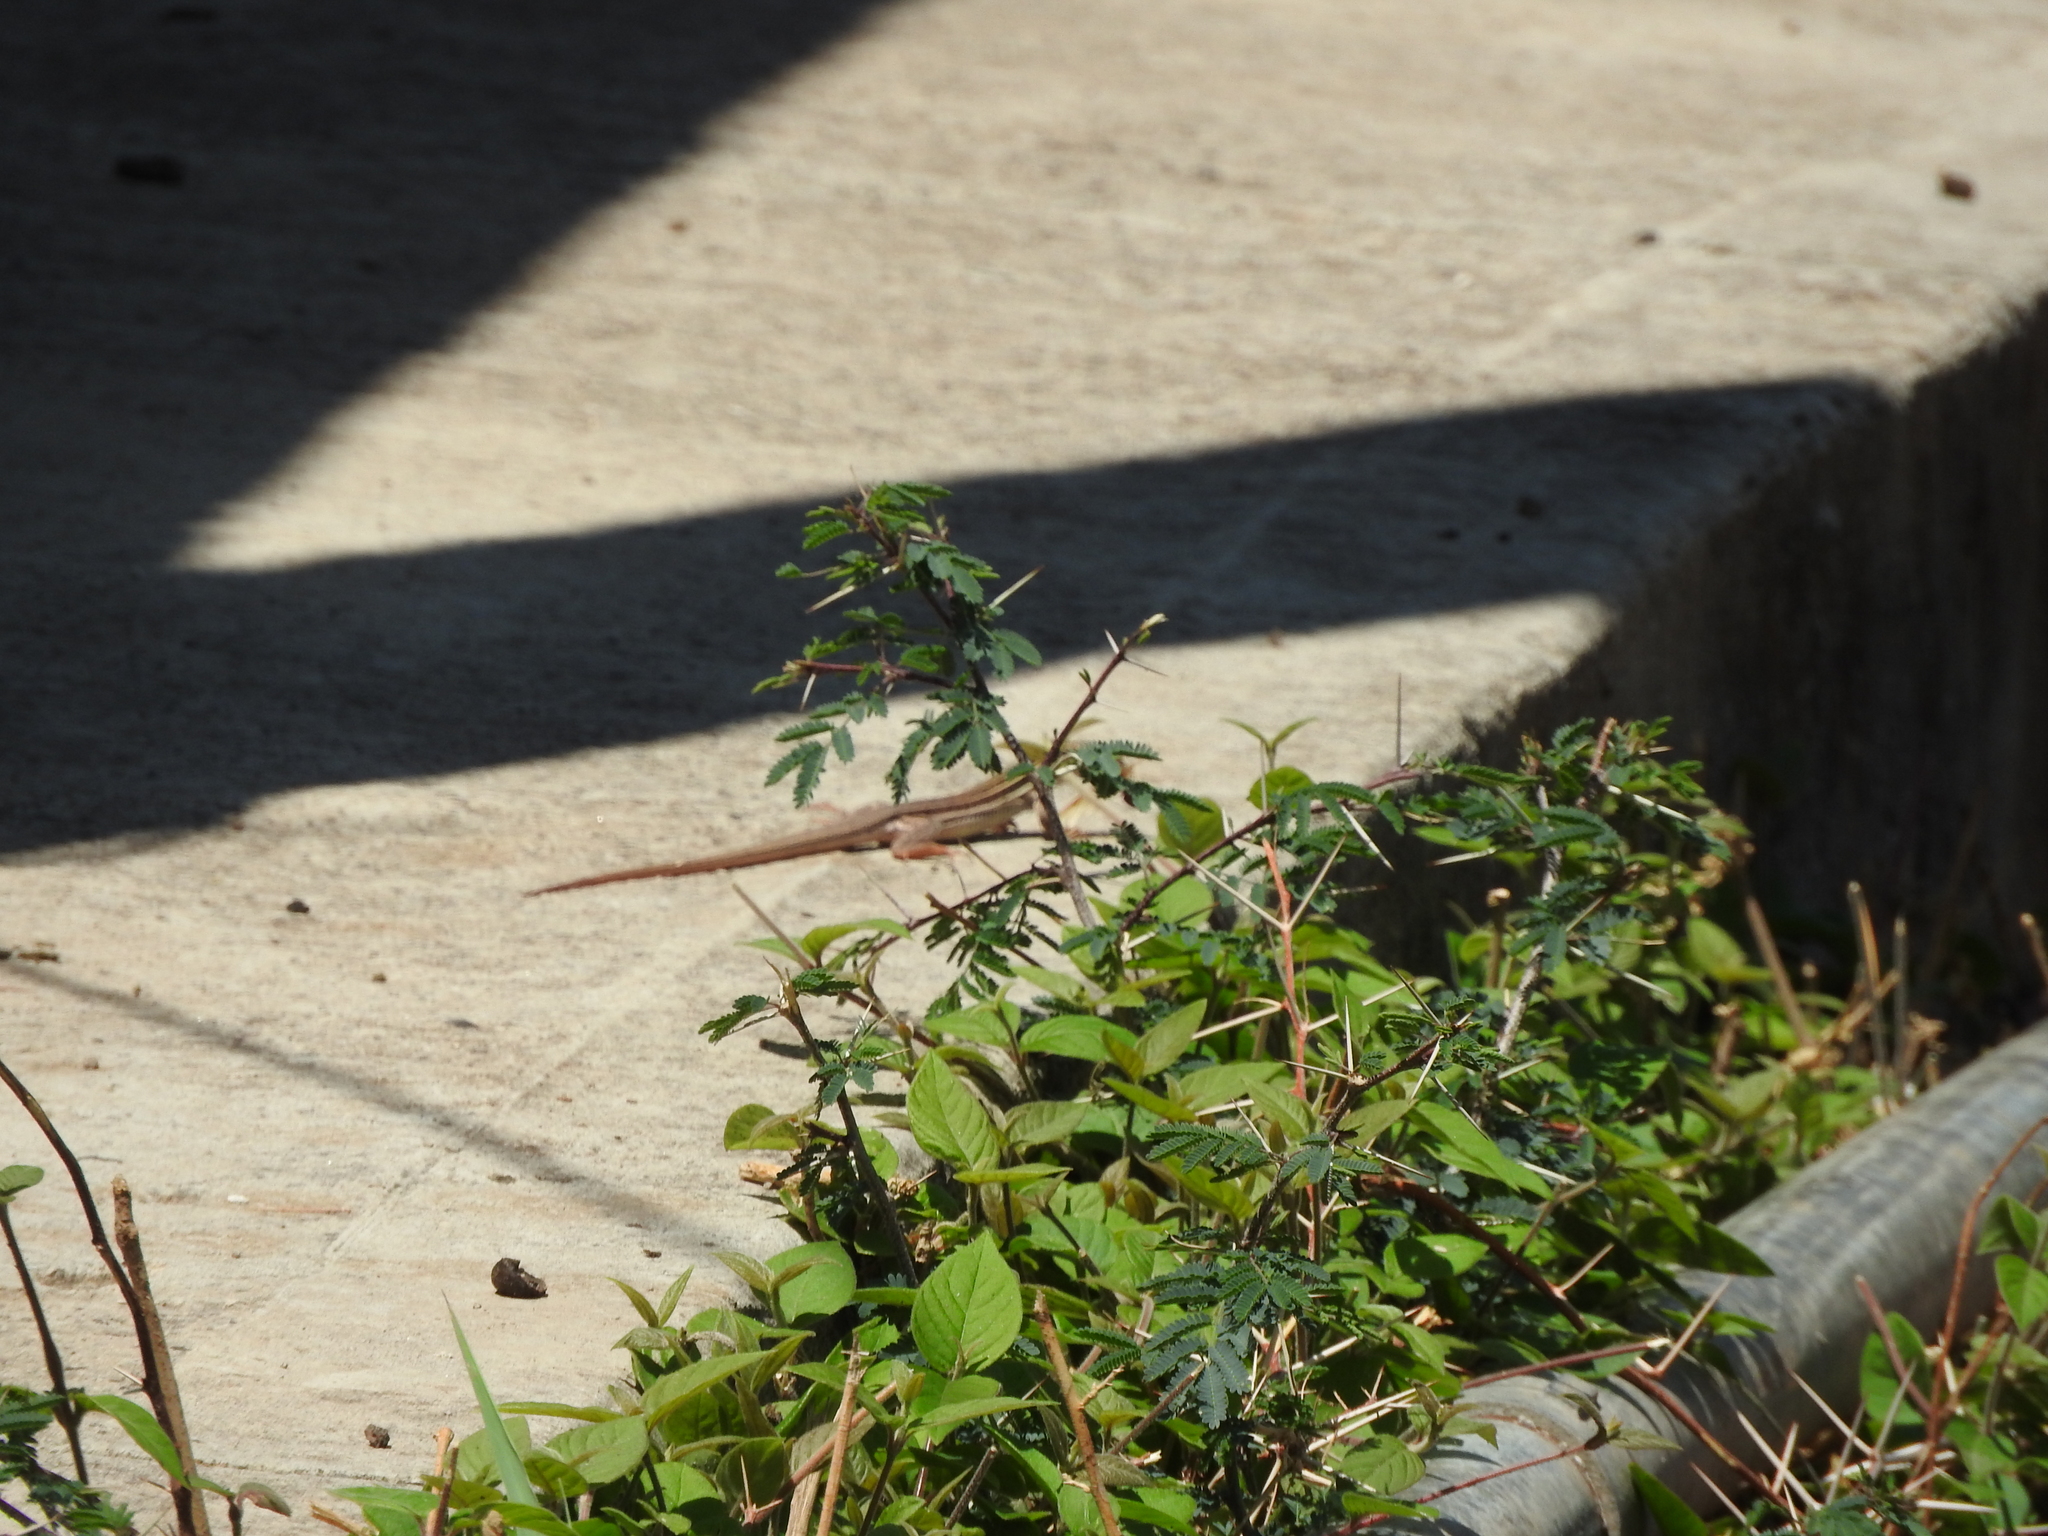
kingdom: Animalia
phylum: Chordata
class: Squamata
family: Teiidae
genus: Aspidoscelis
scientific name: Aspidoscelis gularis
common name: Eastern spotted whiptail
